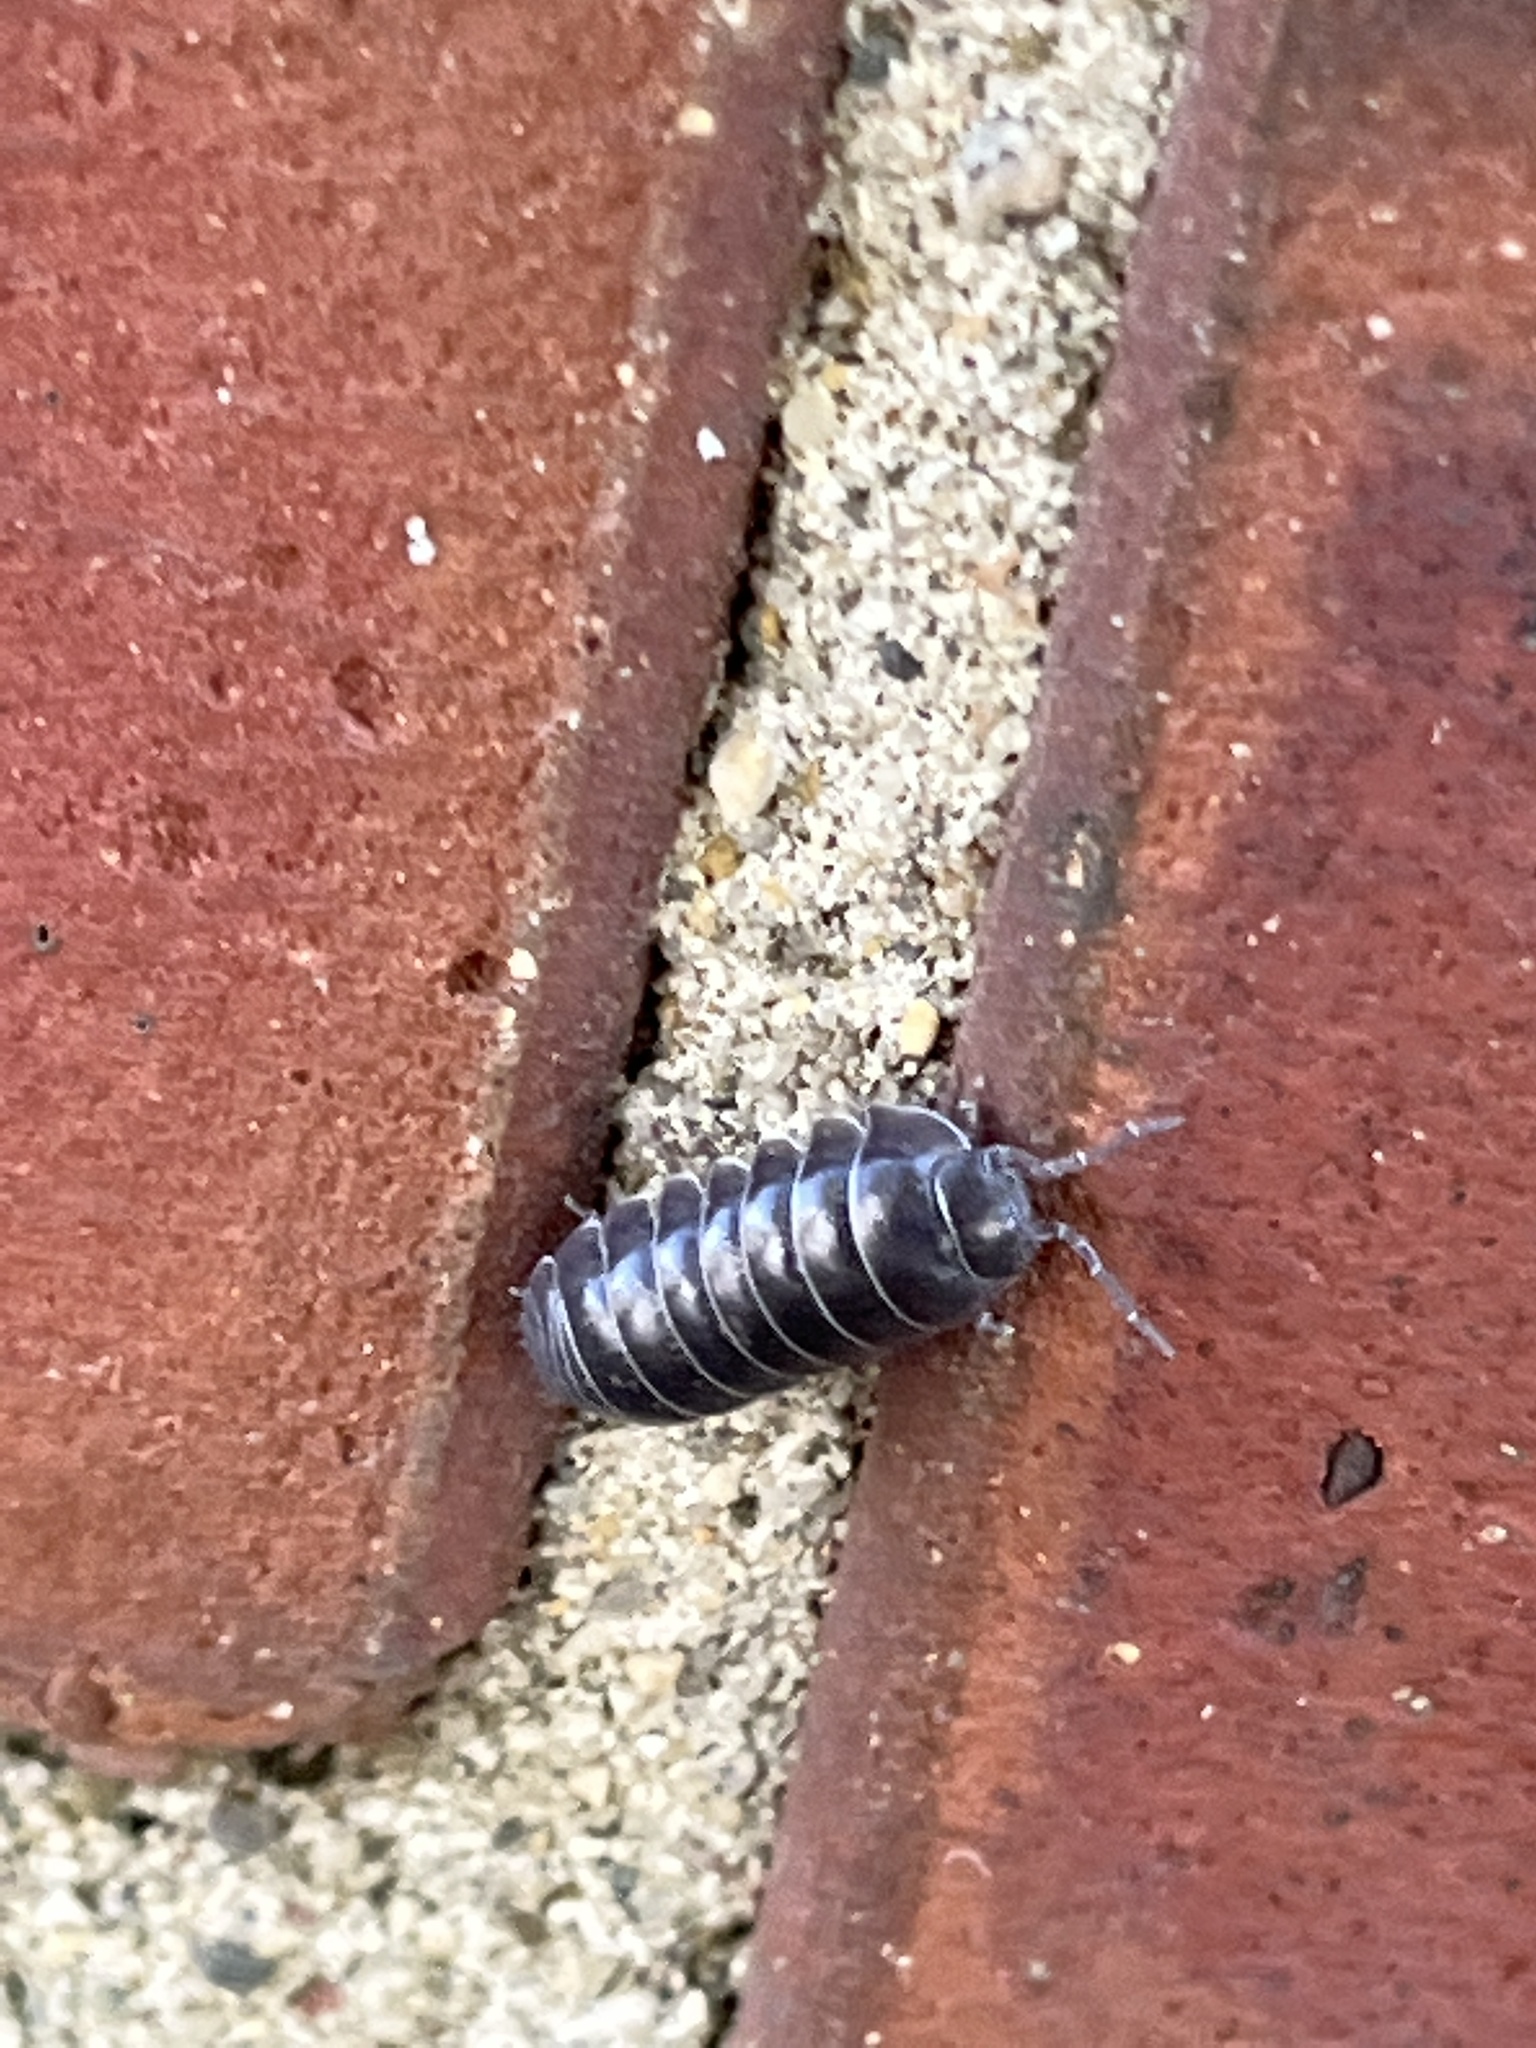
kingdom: Animalia
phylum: Arthropoda
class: Malacostraca
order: Isopoda
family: Armadillidiidae
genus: Armadillidium
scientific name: Armadillidium vulgare
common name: Common pill woodlouse
